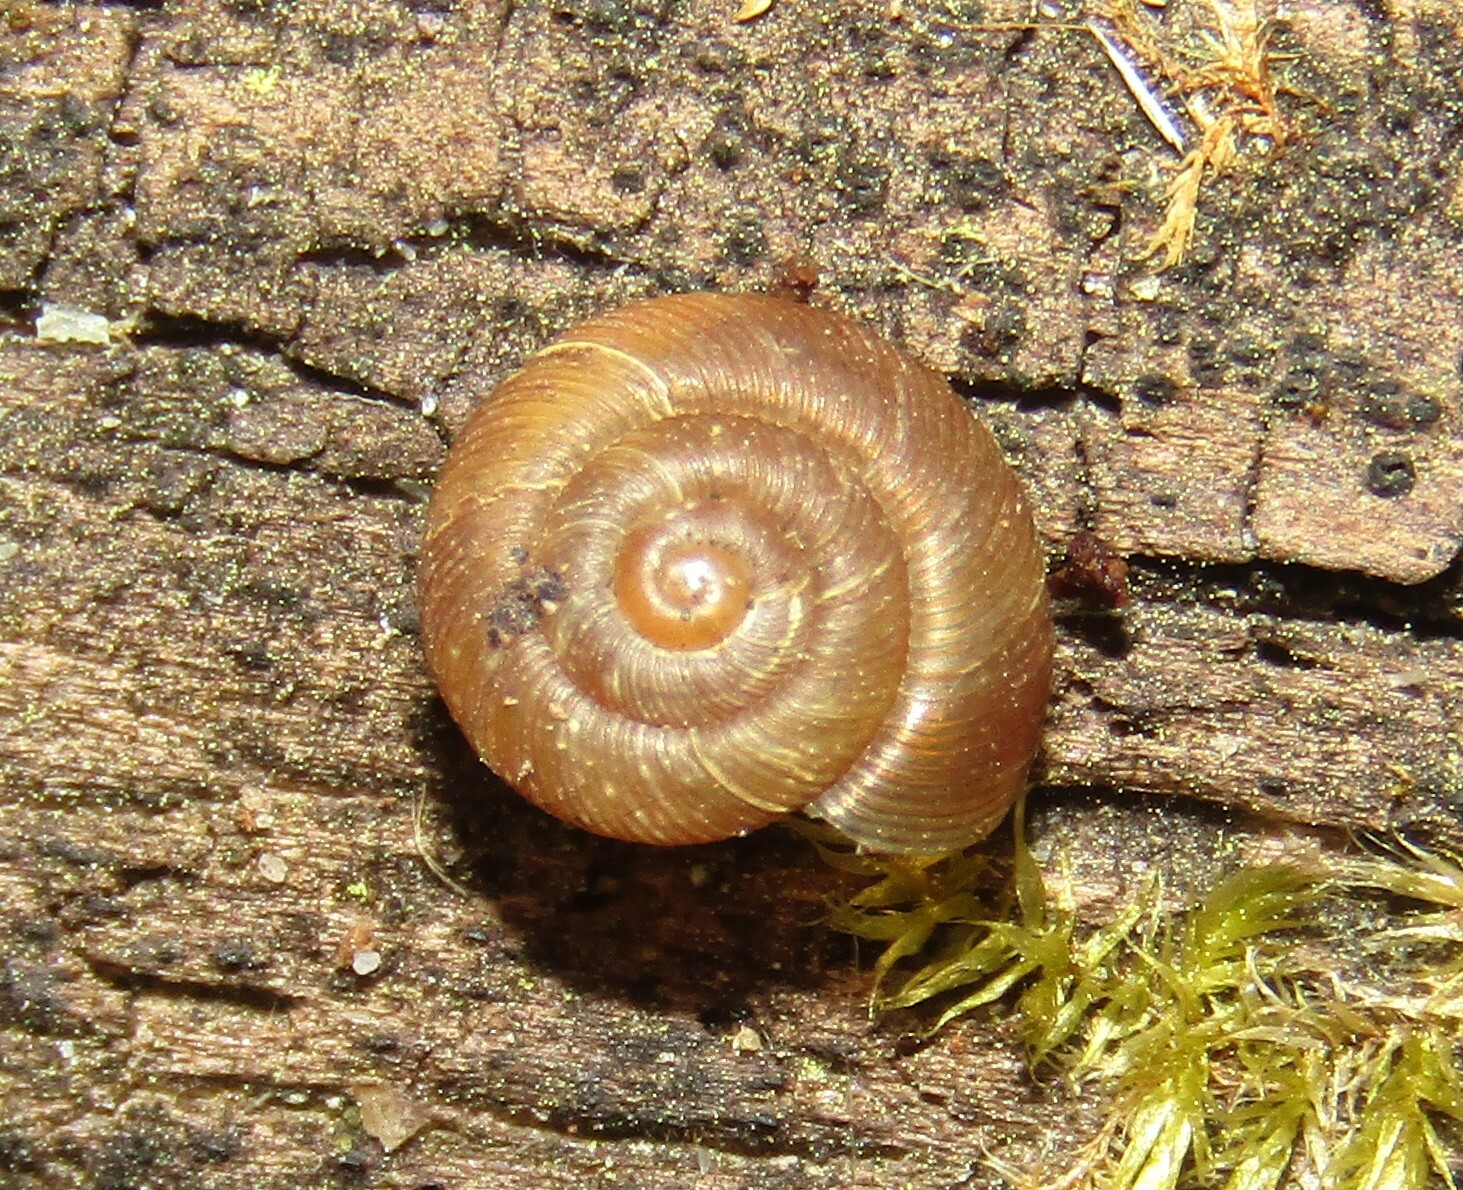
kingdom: Animalia
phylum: Mollusca
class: Gastropoda
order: Stylommatophora
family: Discidae
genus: Discus
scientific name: Discus ruderatus
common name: Brown disc snail
